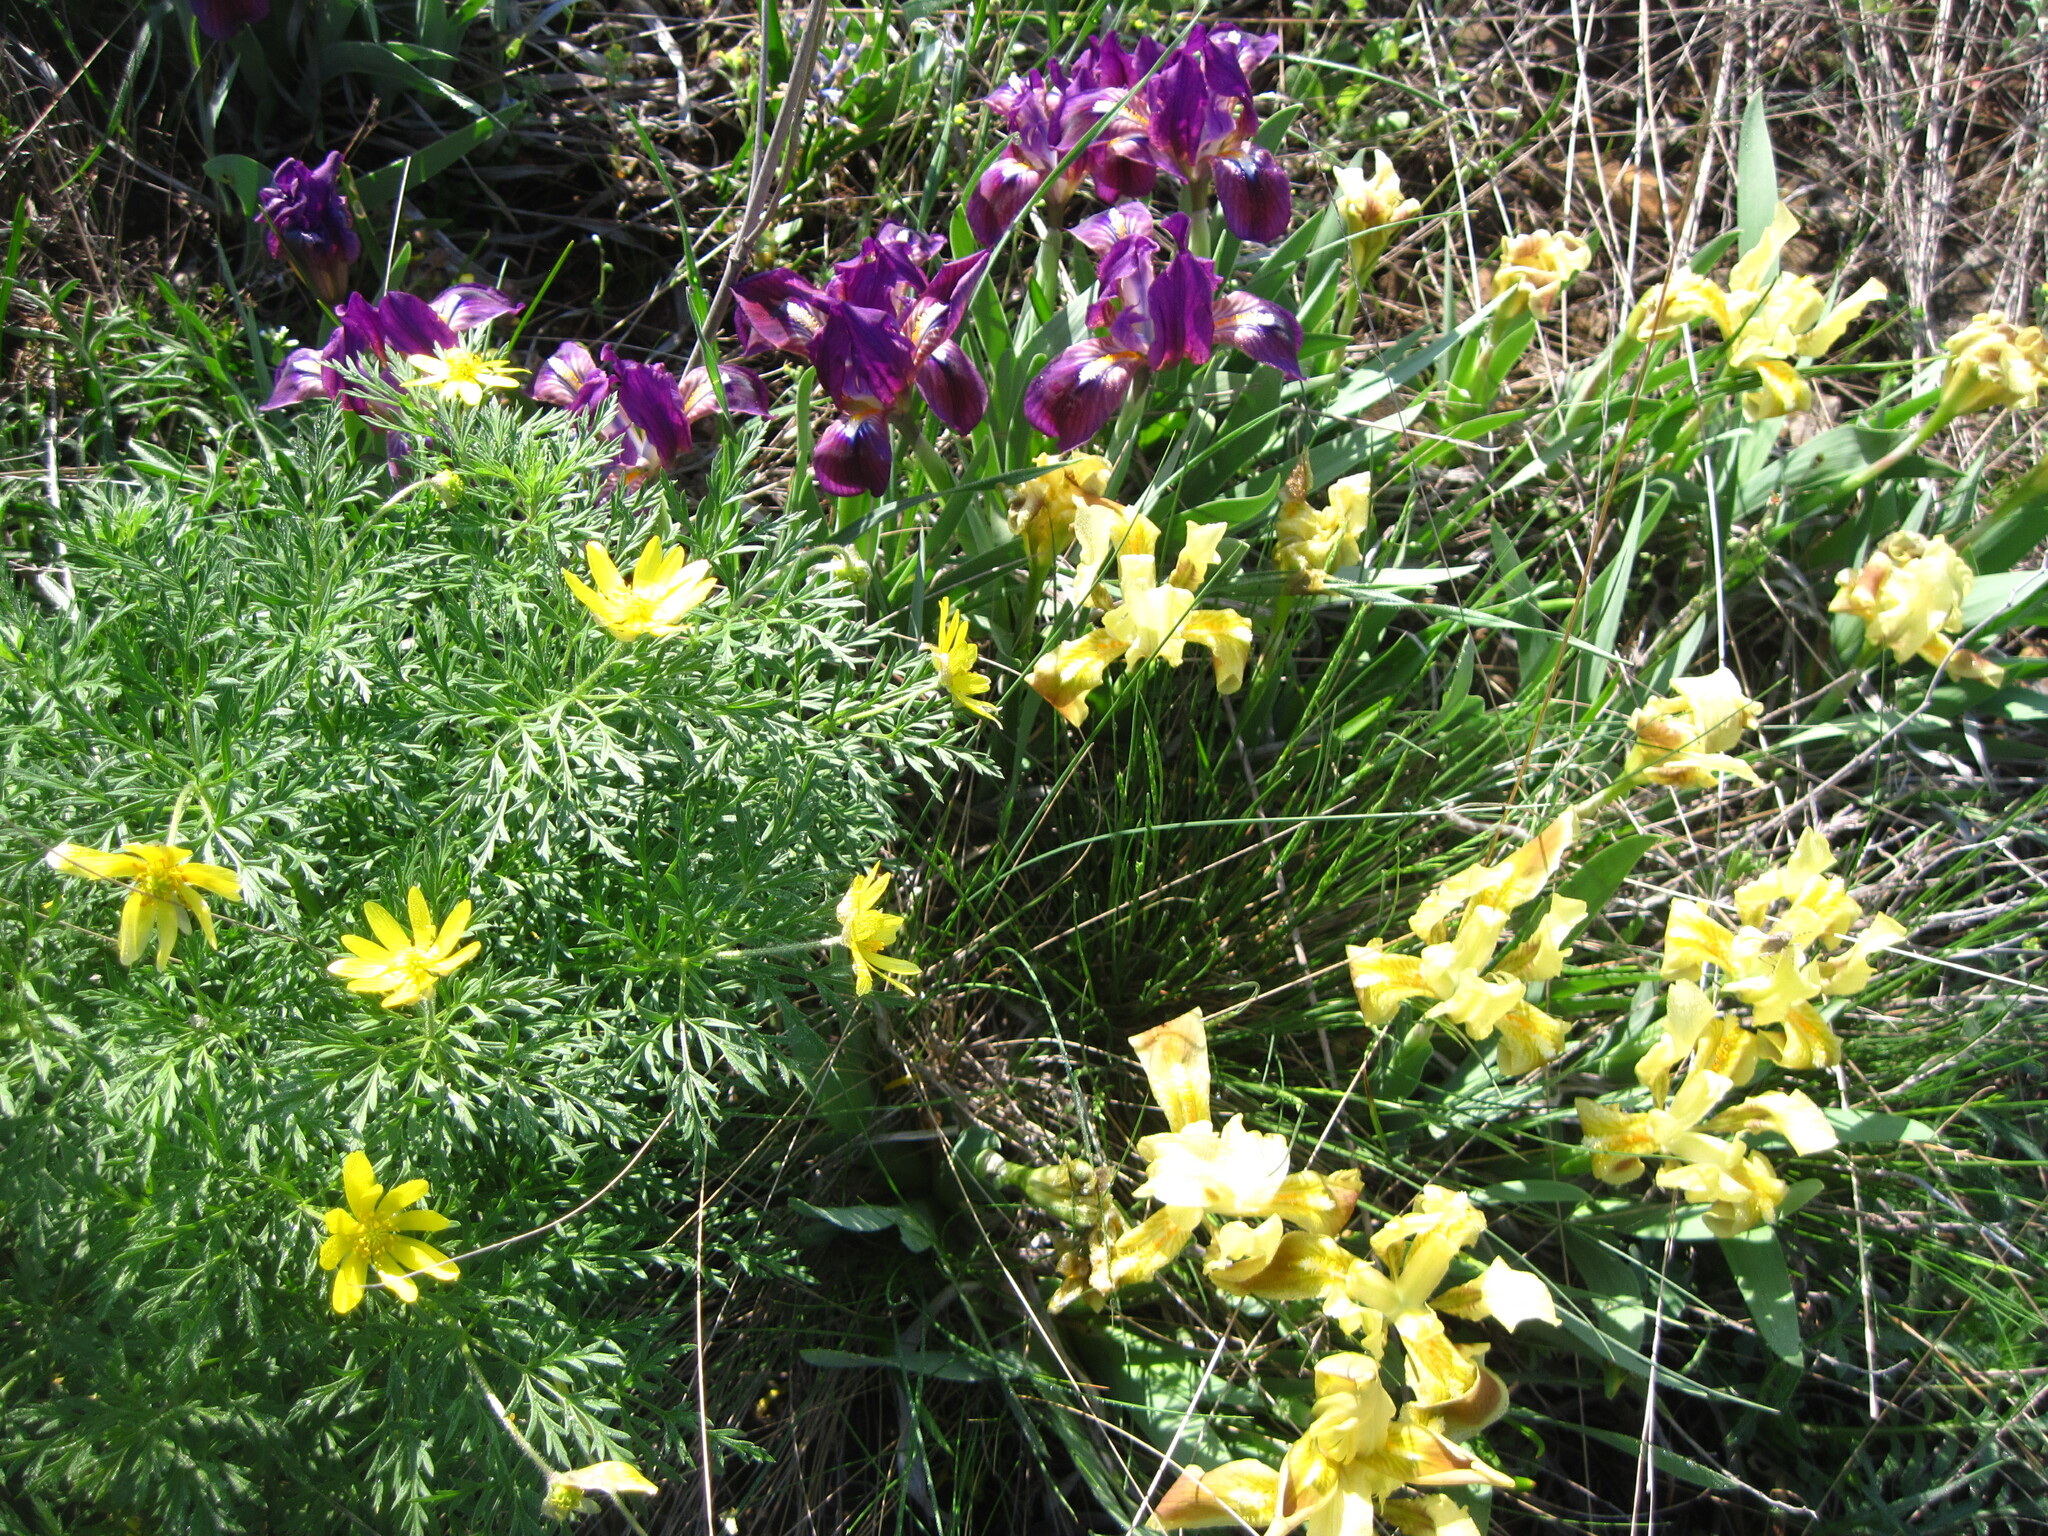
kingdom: Plantae
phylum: Tracheophyta
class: Magnoliopsida
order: Ranunculales
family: Ranunculaceae
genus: Adonis
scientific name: Adonis volgensis
